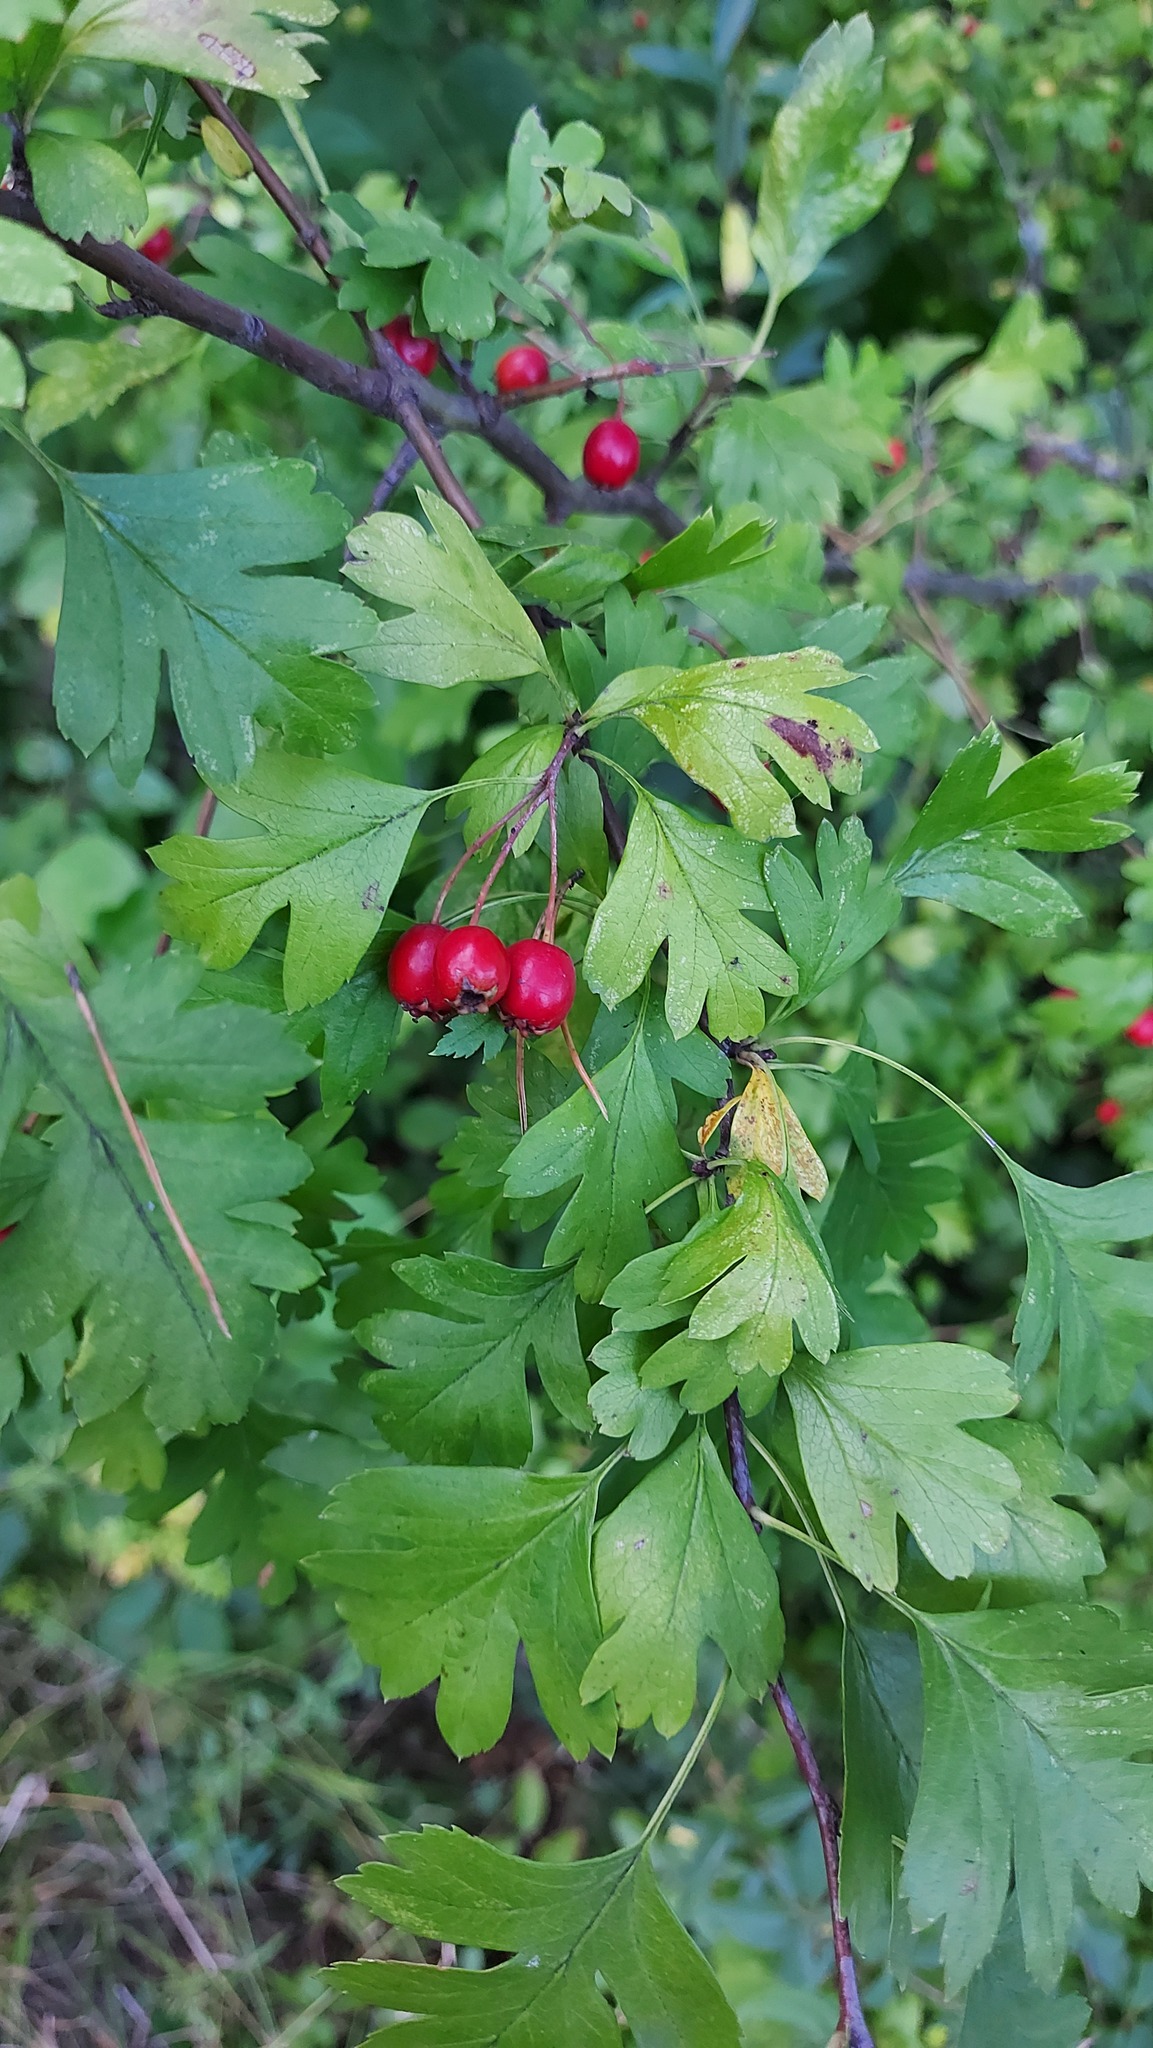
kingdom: Plantae
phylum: Tracheophyta
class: Magnoliopsida
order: Rosales
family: Rosaceae
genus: Crataegus
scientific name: Crataegus monogyna
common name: Hawthorn
